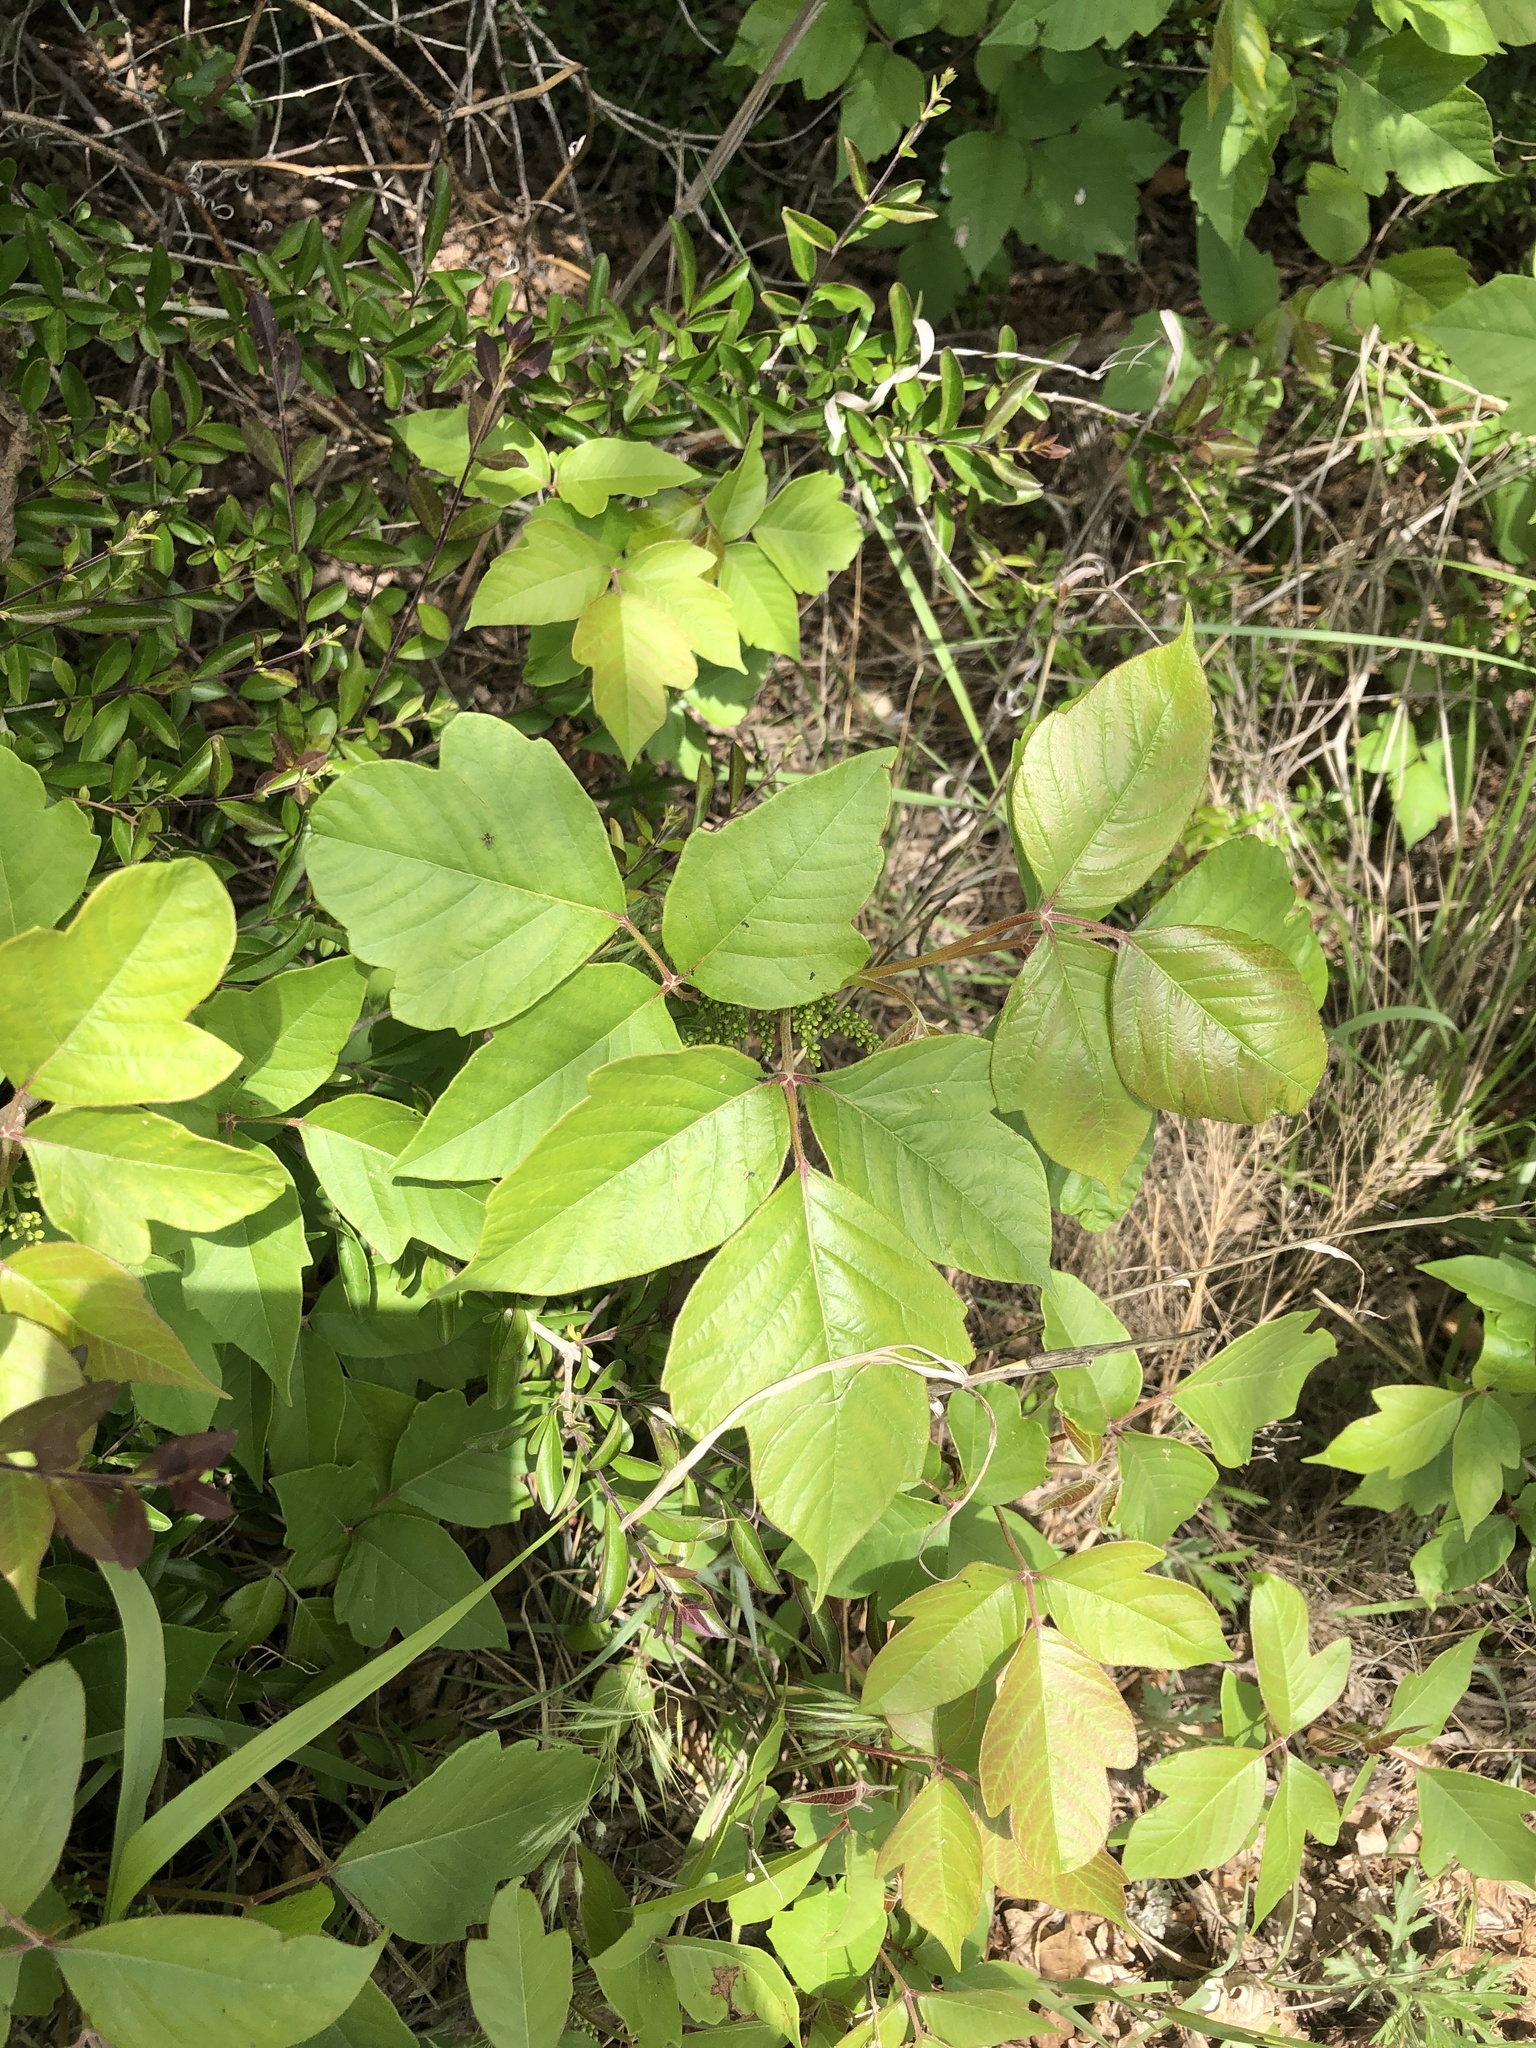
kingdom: Plantae
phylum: Tracheophyta
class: Magnoliopsida
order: Sapindales
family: Anacardiaceae
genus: Toxicodendron
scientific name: Toxicodendron radicans
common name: Poison ivy
